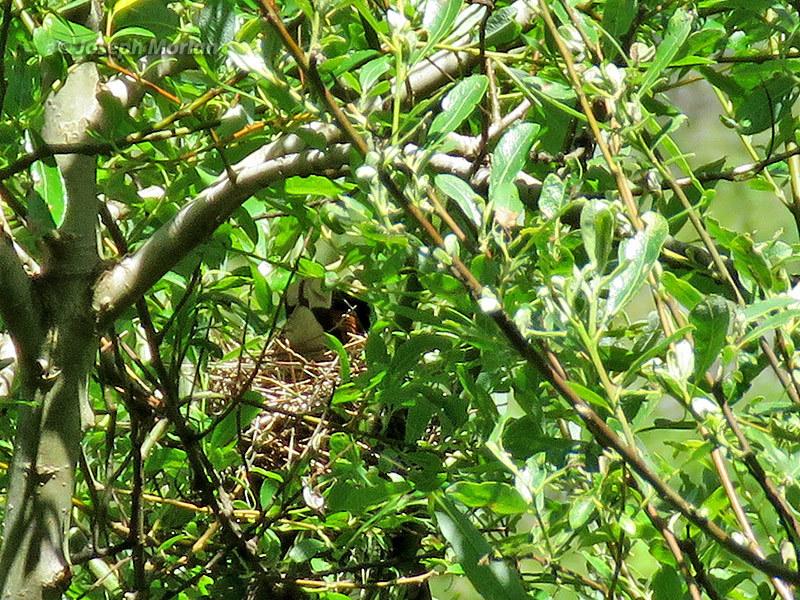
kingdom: Animalia
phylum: Chordata
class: Aves
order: Passeriformes
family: Cardinalidae
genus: Pheucticus
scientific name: Pheucticus melanocephalus
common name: Black-headed grosbeak
